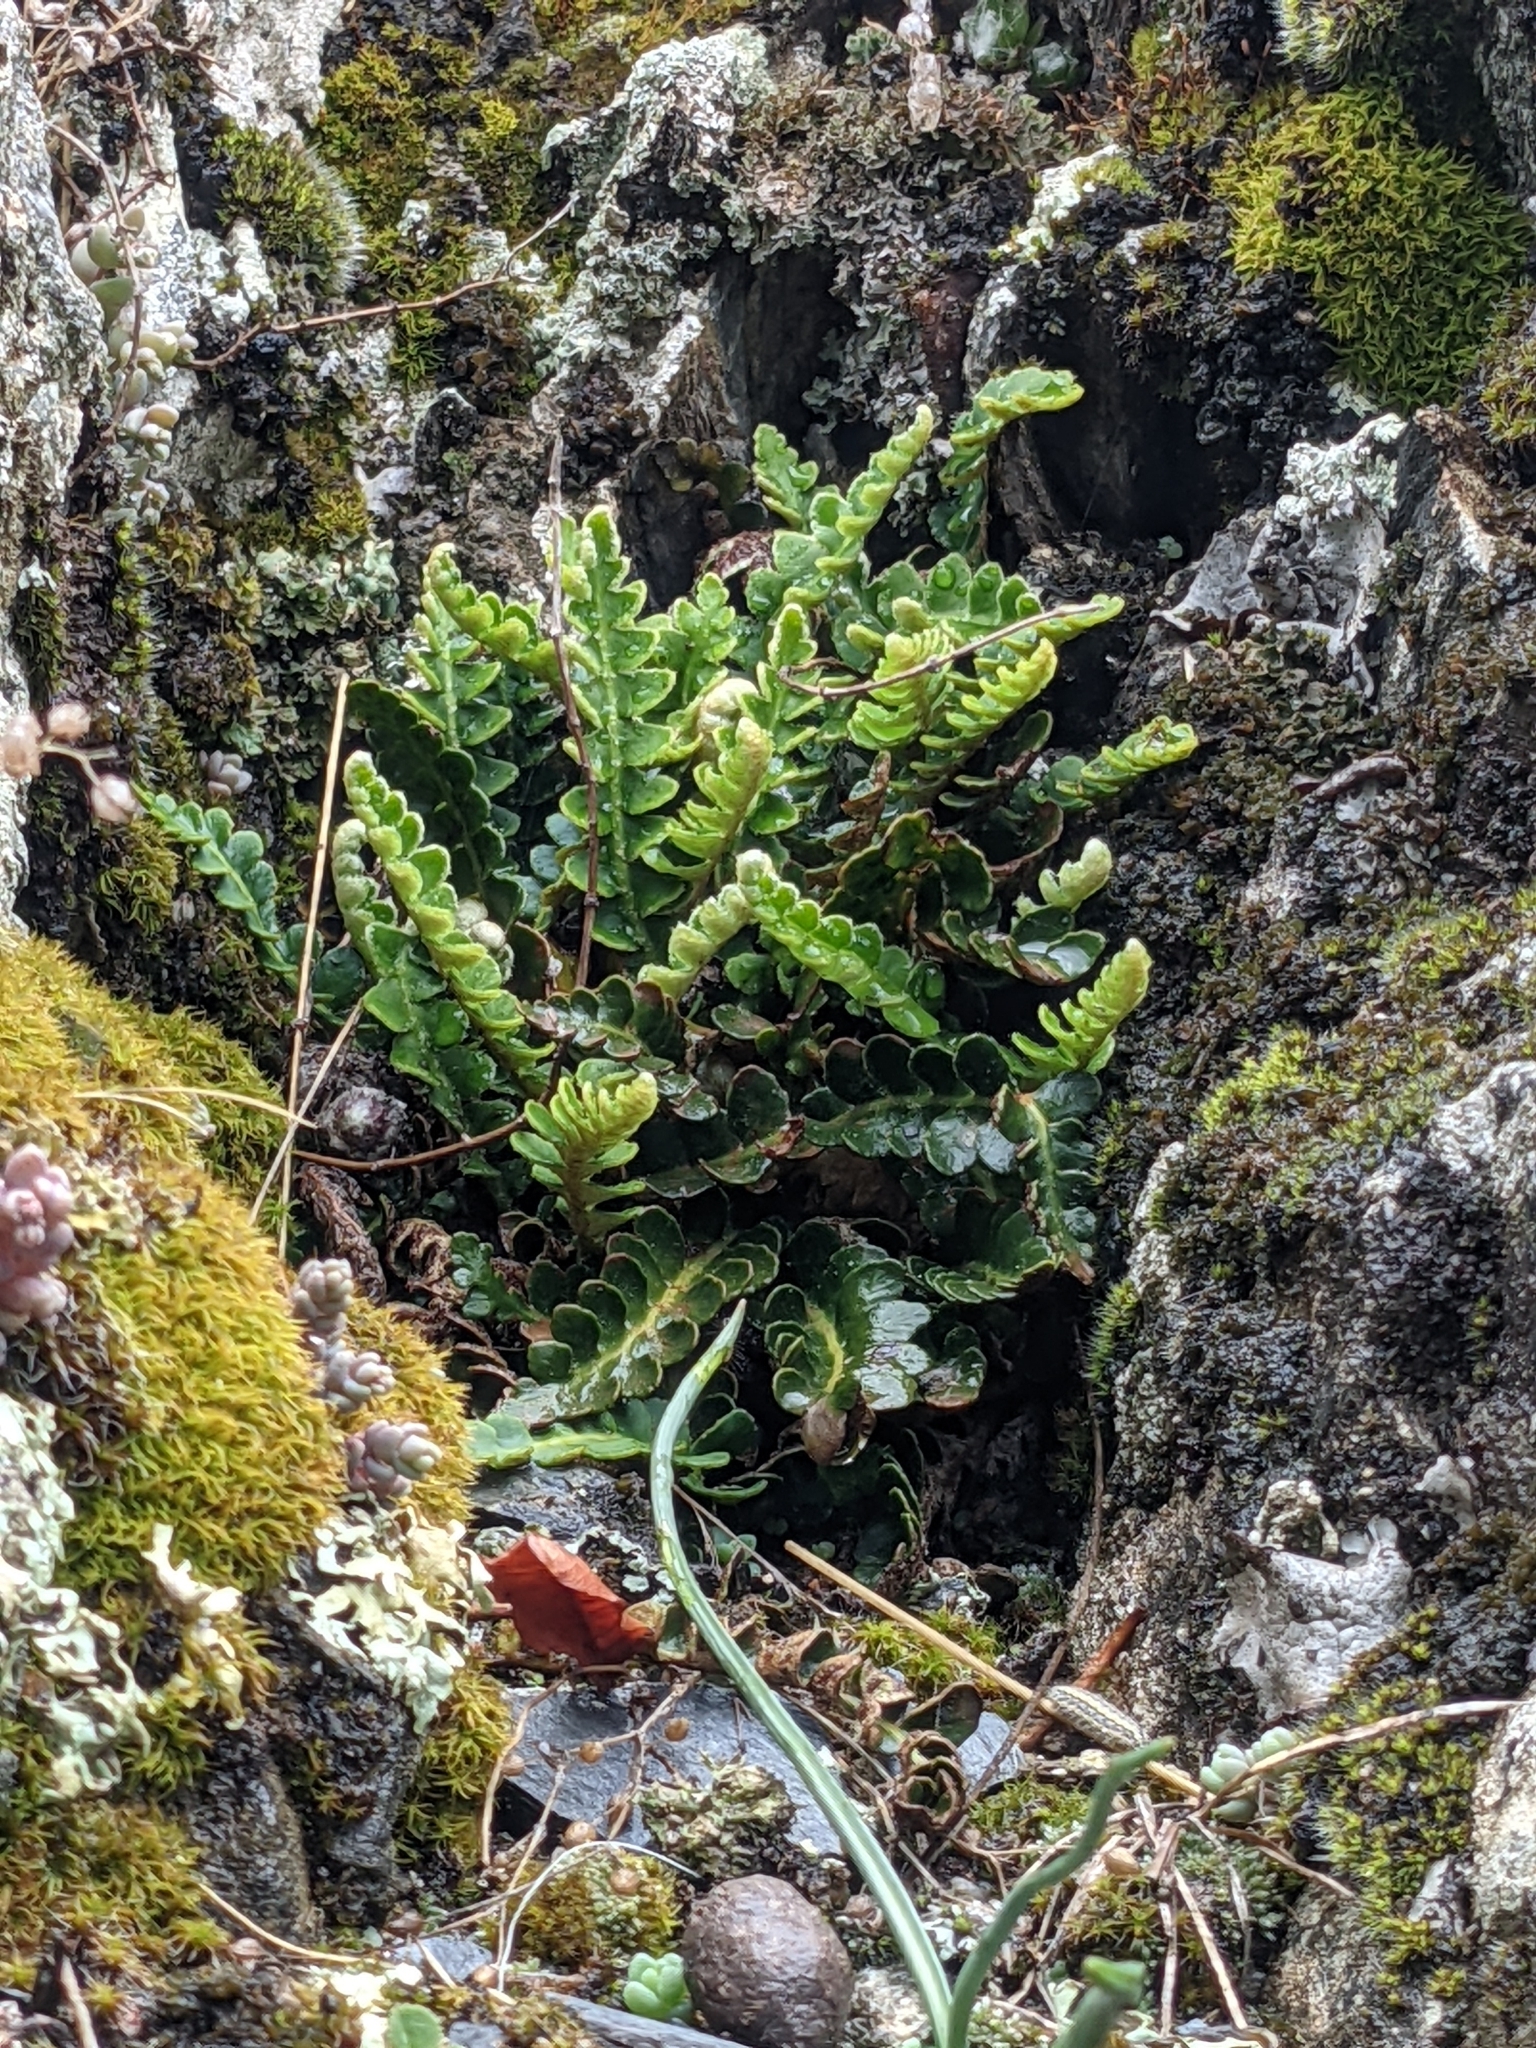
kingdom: Plantae
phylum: Tracheophyta
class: Polypodiopsida
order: Polypodiales
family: Aspleniaceae
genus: Asplenium
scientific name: Asplenium ceterach
